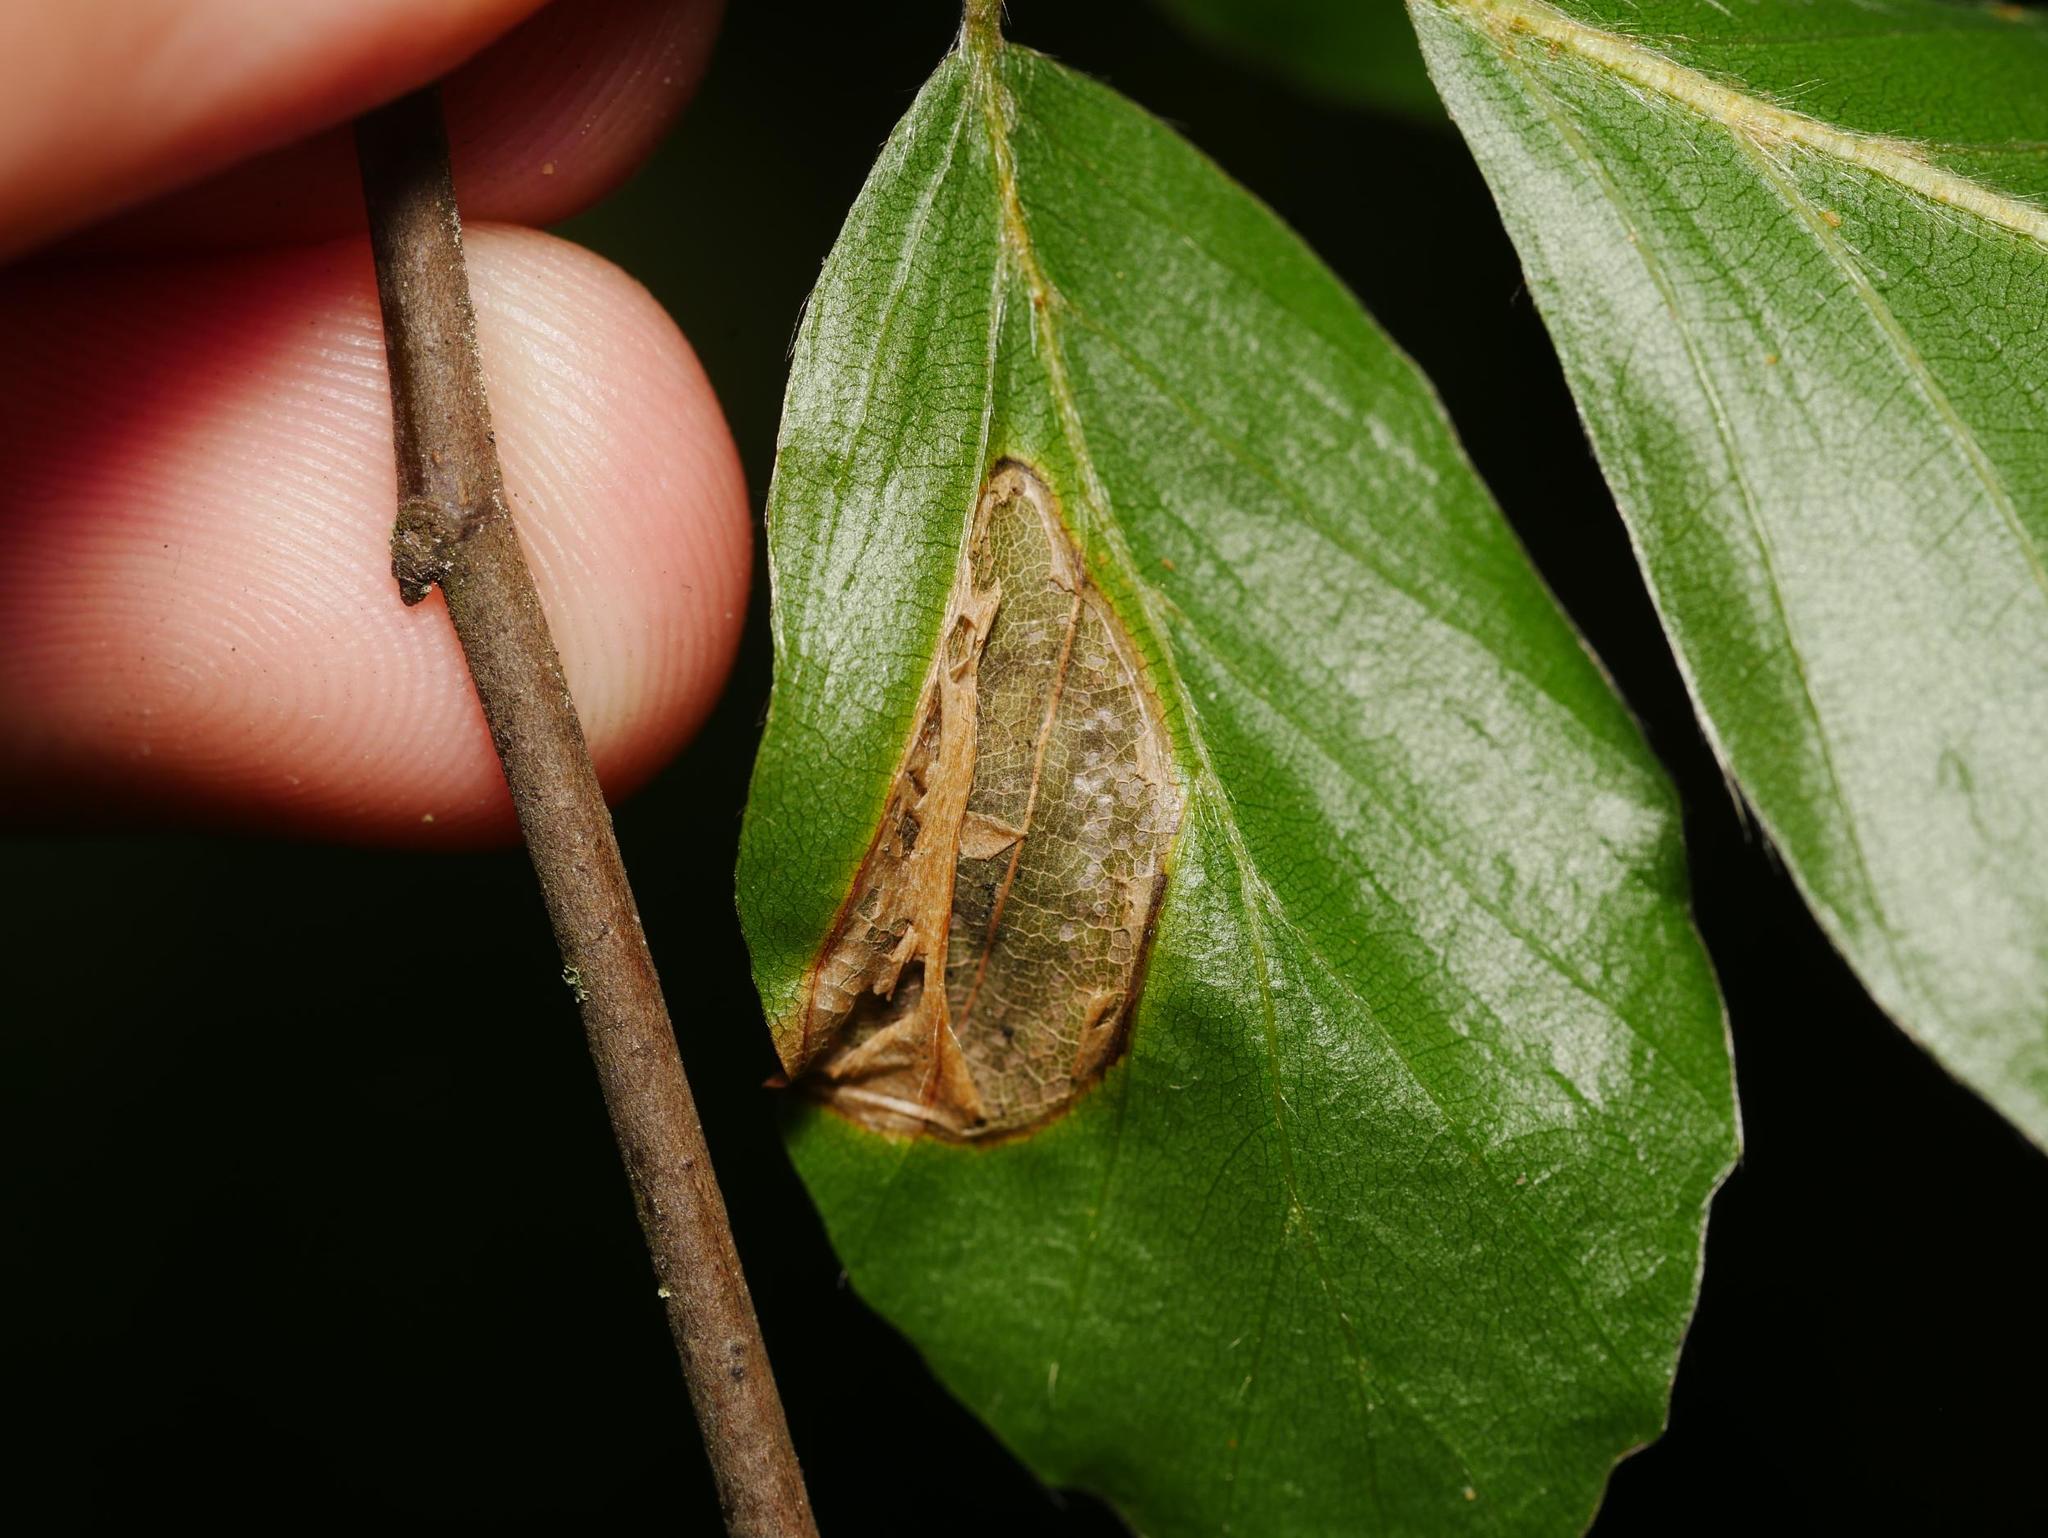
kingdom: Animalia
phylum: Arthropoda
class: Insecta
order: Lepidoptera
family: Gracillariidae
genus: Phyllonorycter
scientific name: Phyllonorycter maestingella
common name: Beech midget
